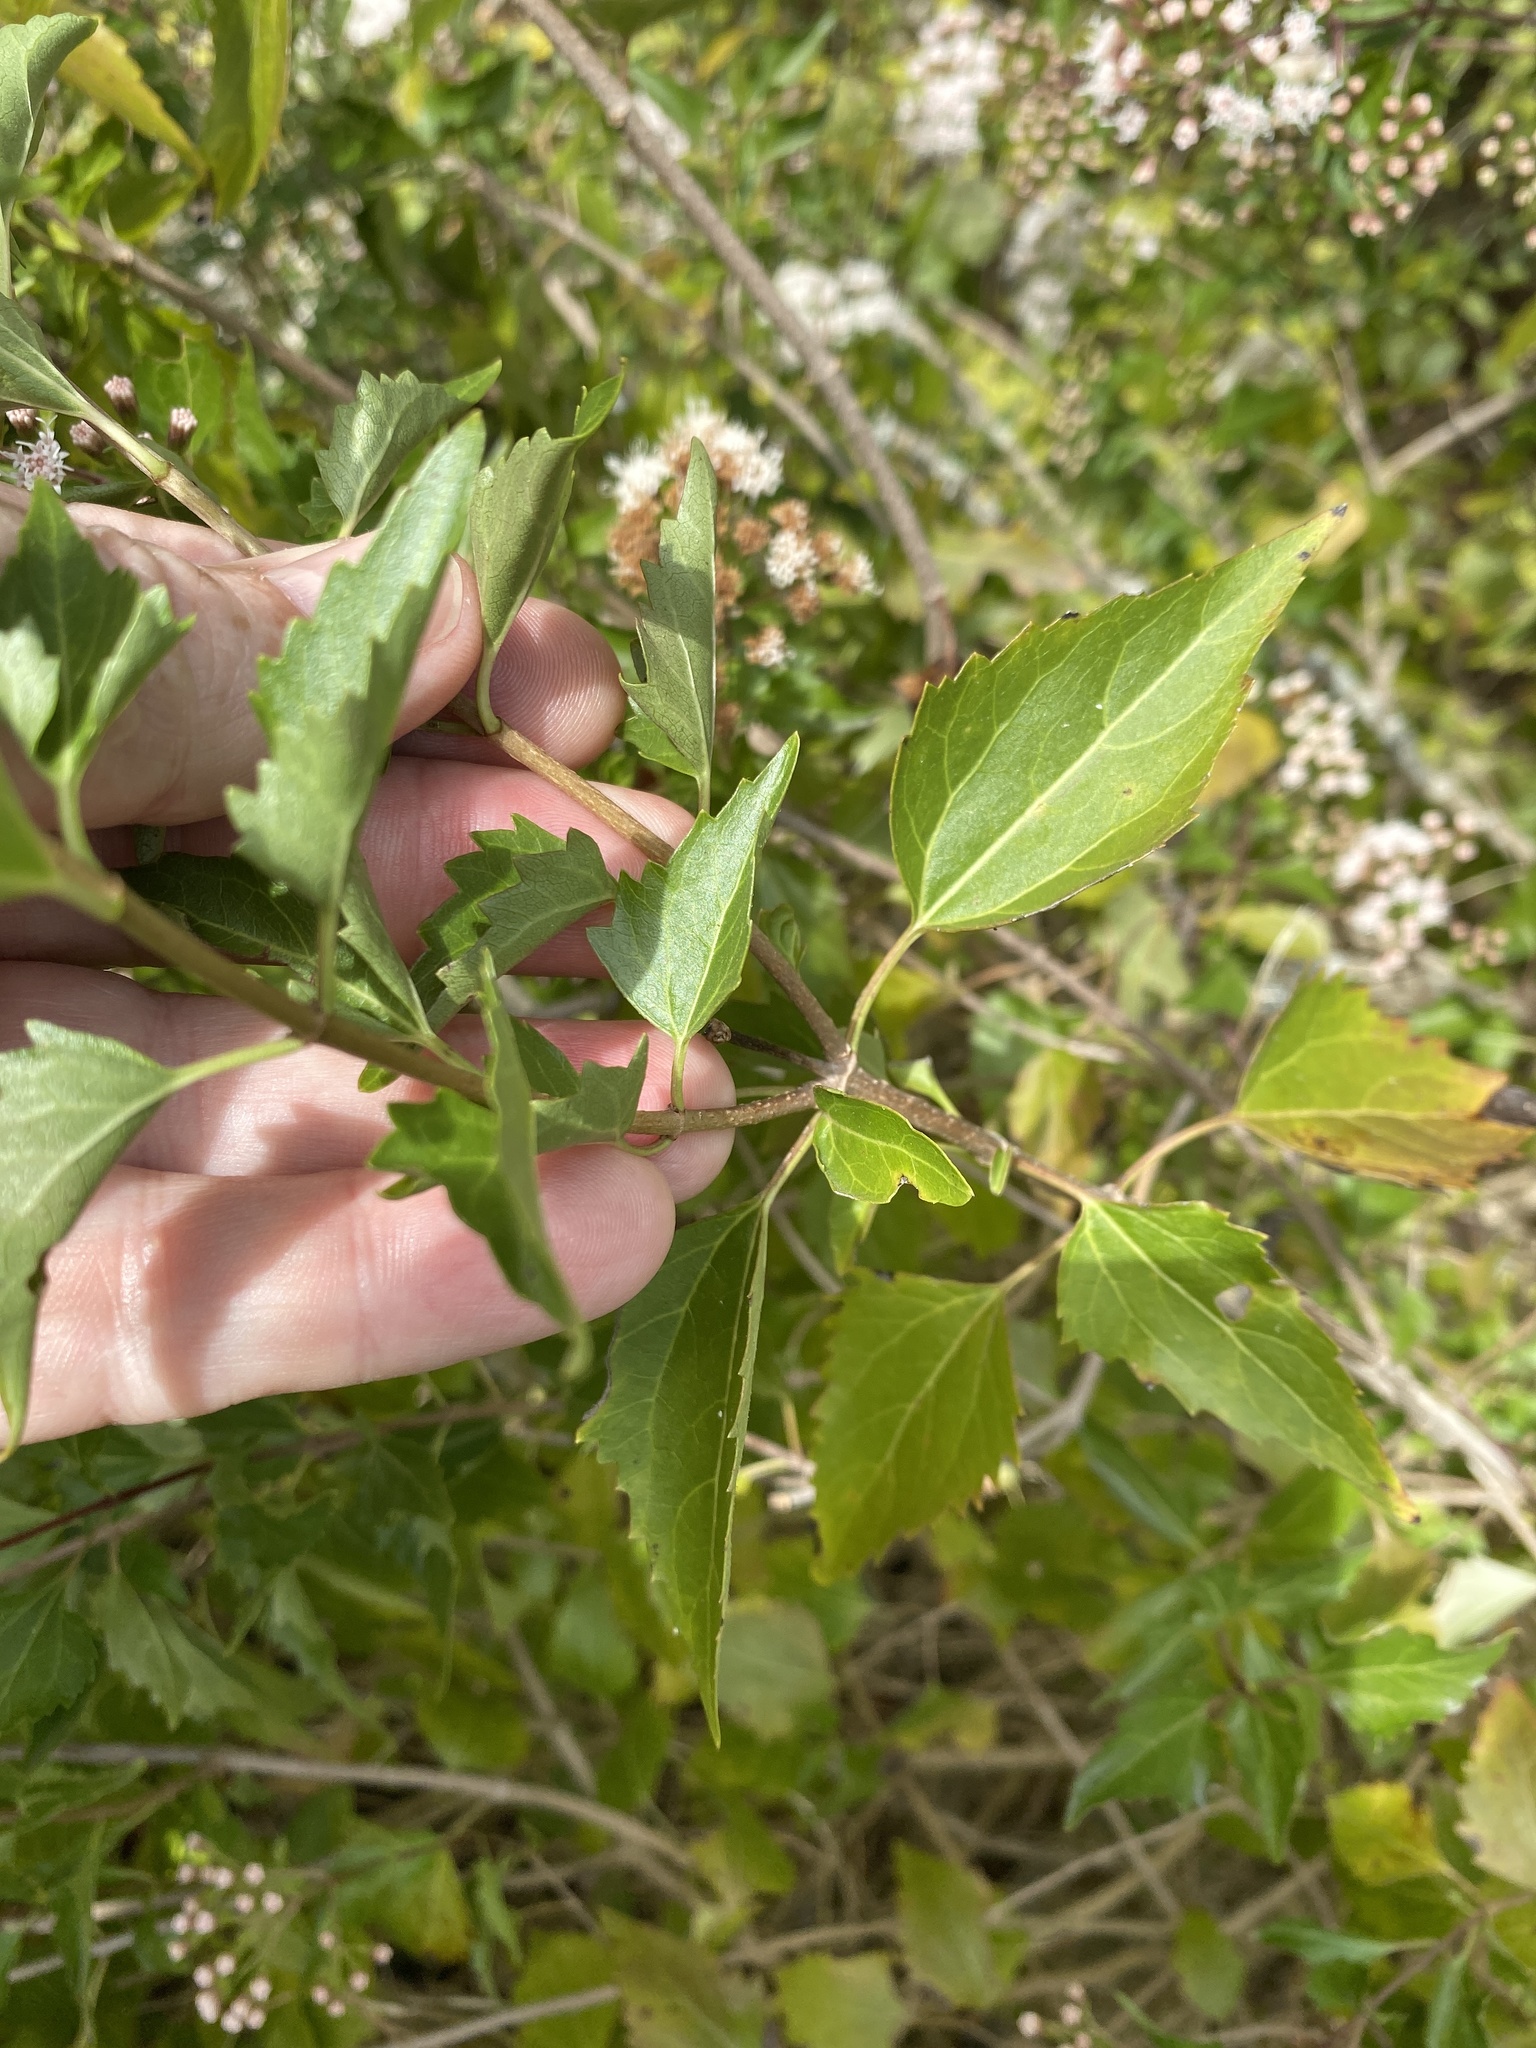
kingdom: Plantae
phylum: Tracheophyta
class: Magnoliopsida
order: Asterales
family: Asteraceae
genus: Ageratina
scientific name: Ageratina havanensis
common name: Havana snakeroot
